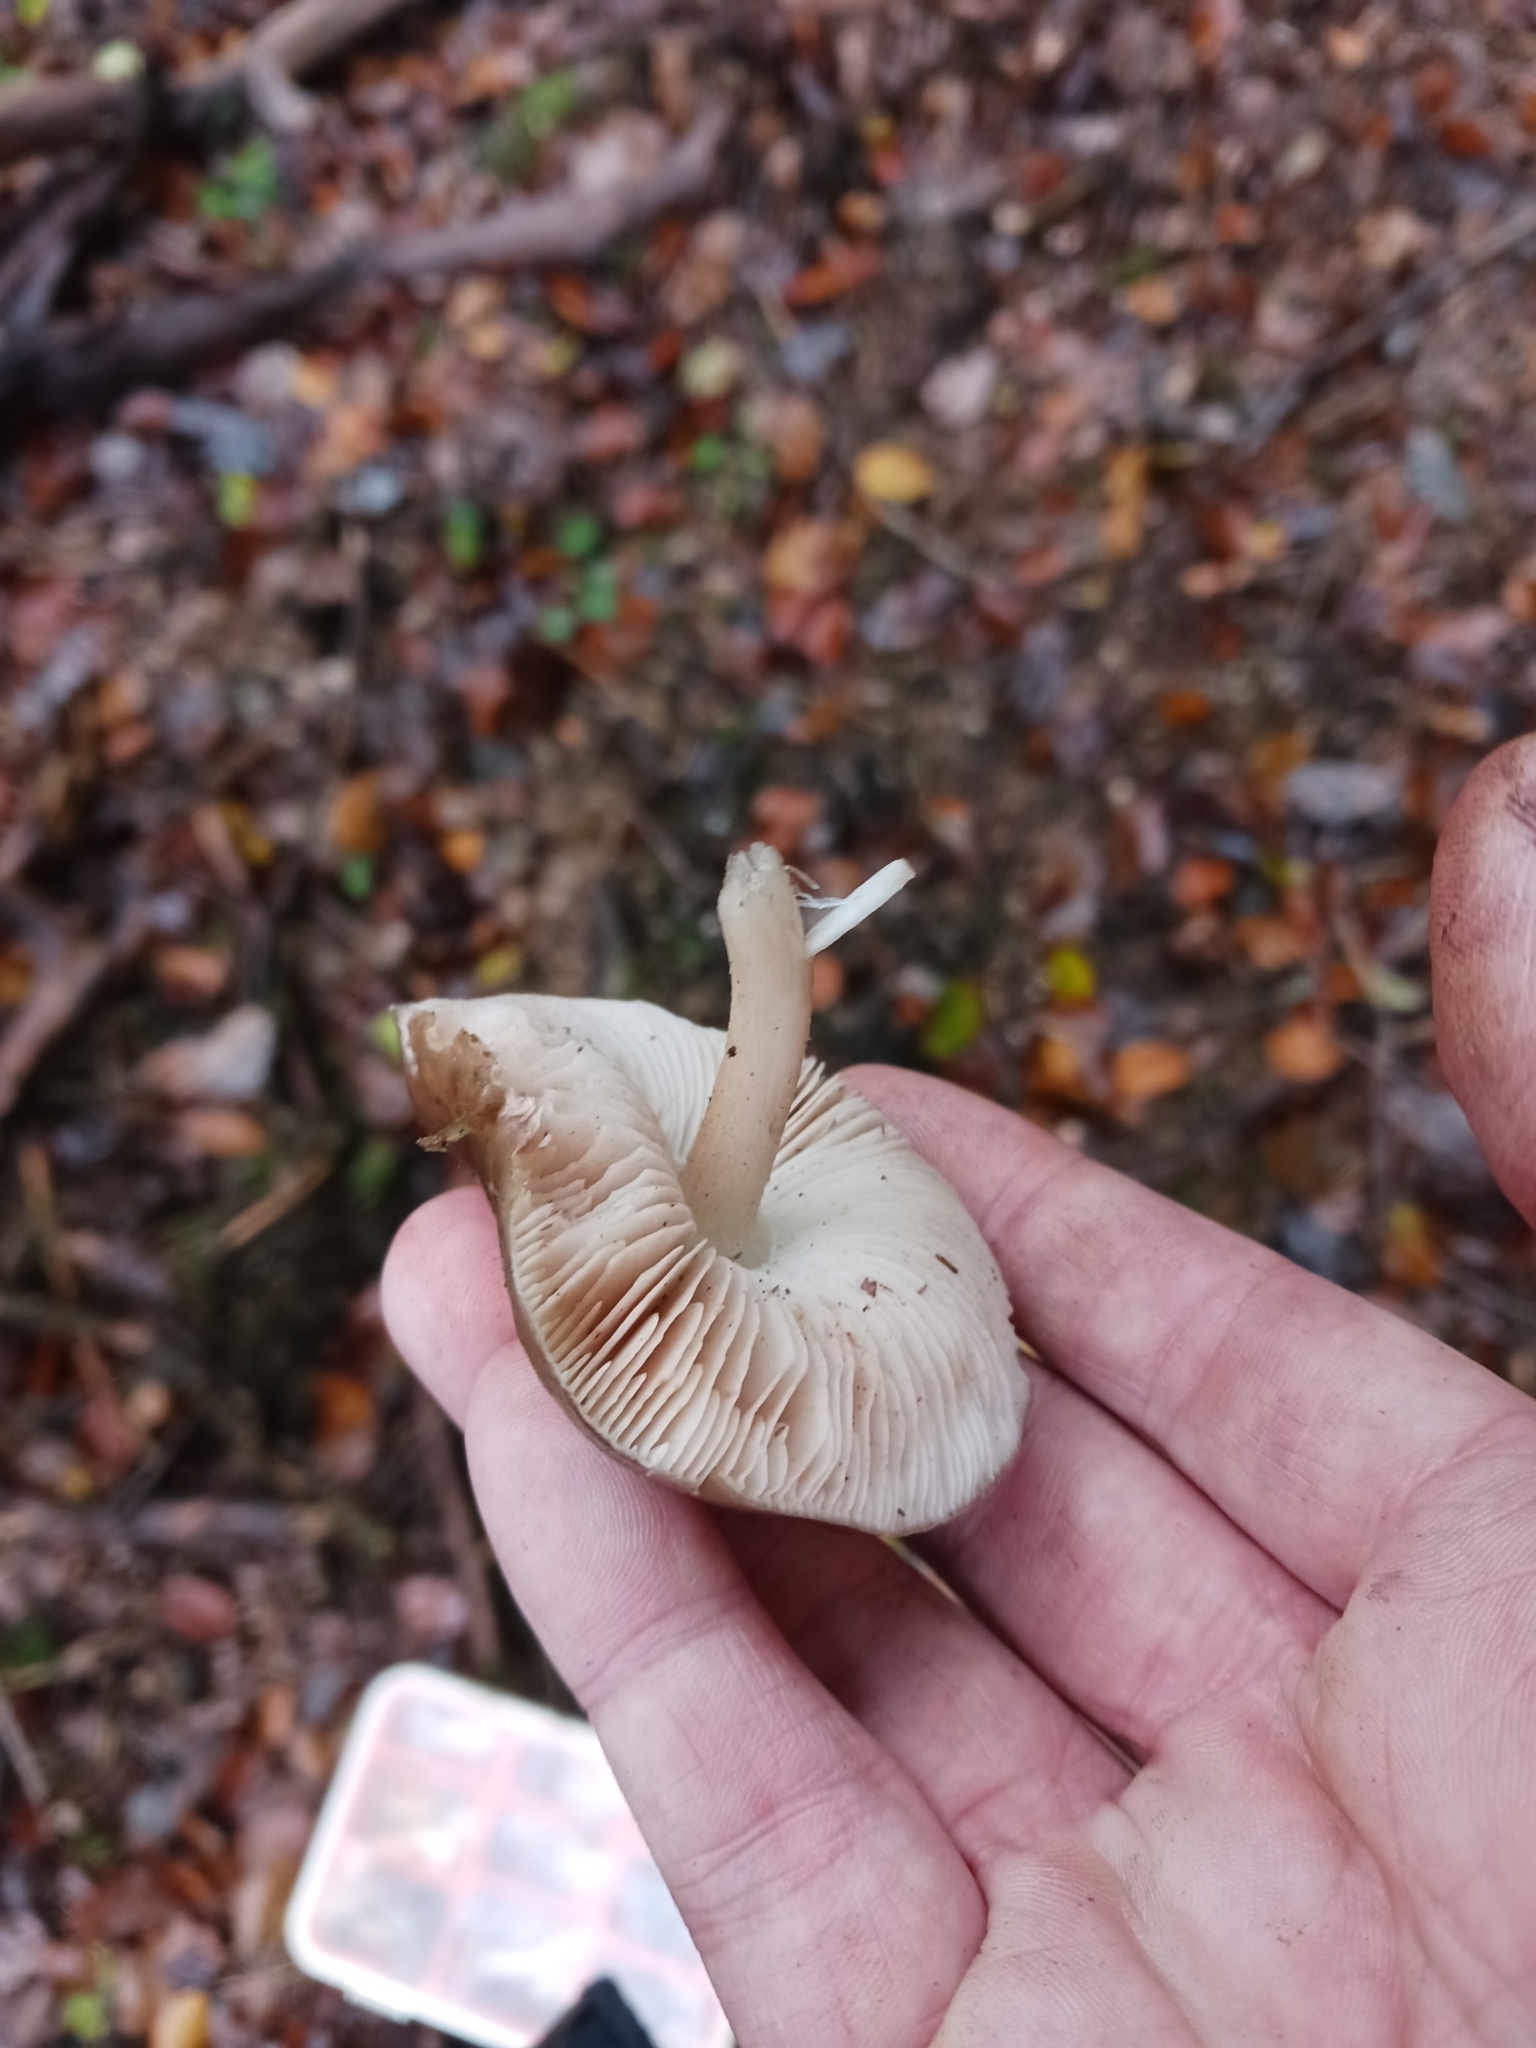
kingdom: Fungi
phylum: Basidiomycota
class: Agaricomycetes
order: Agaricales
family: Pluteaceae
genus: Pluteus
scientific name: Pluteus cervinus
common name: Deer shield
